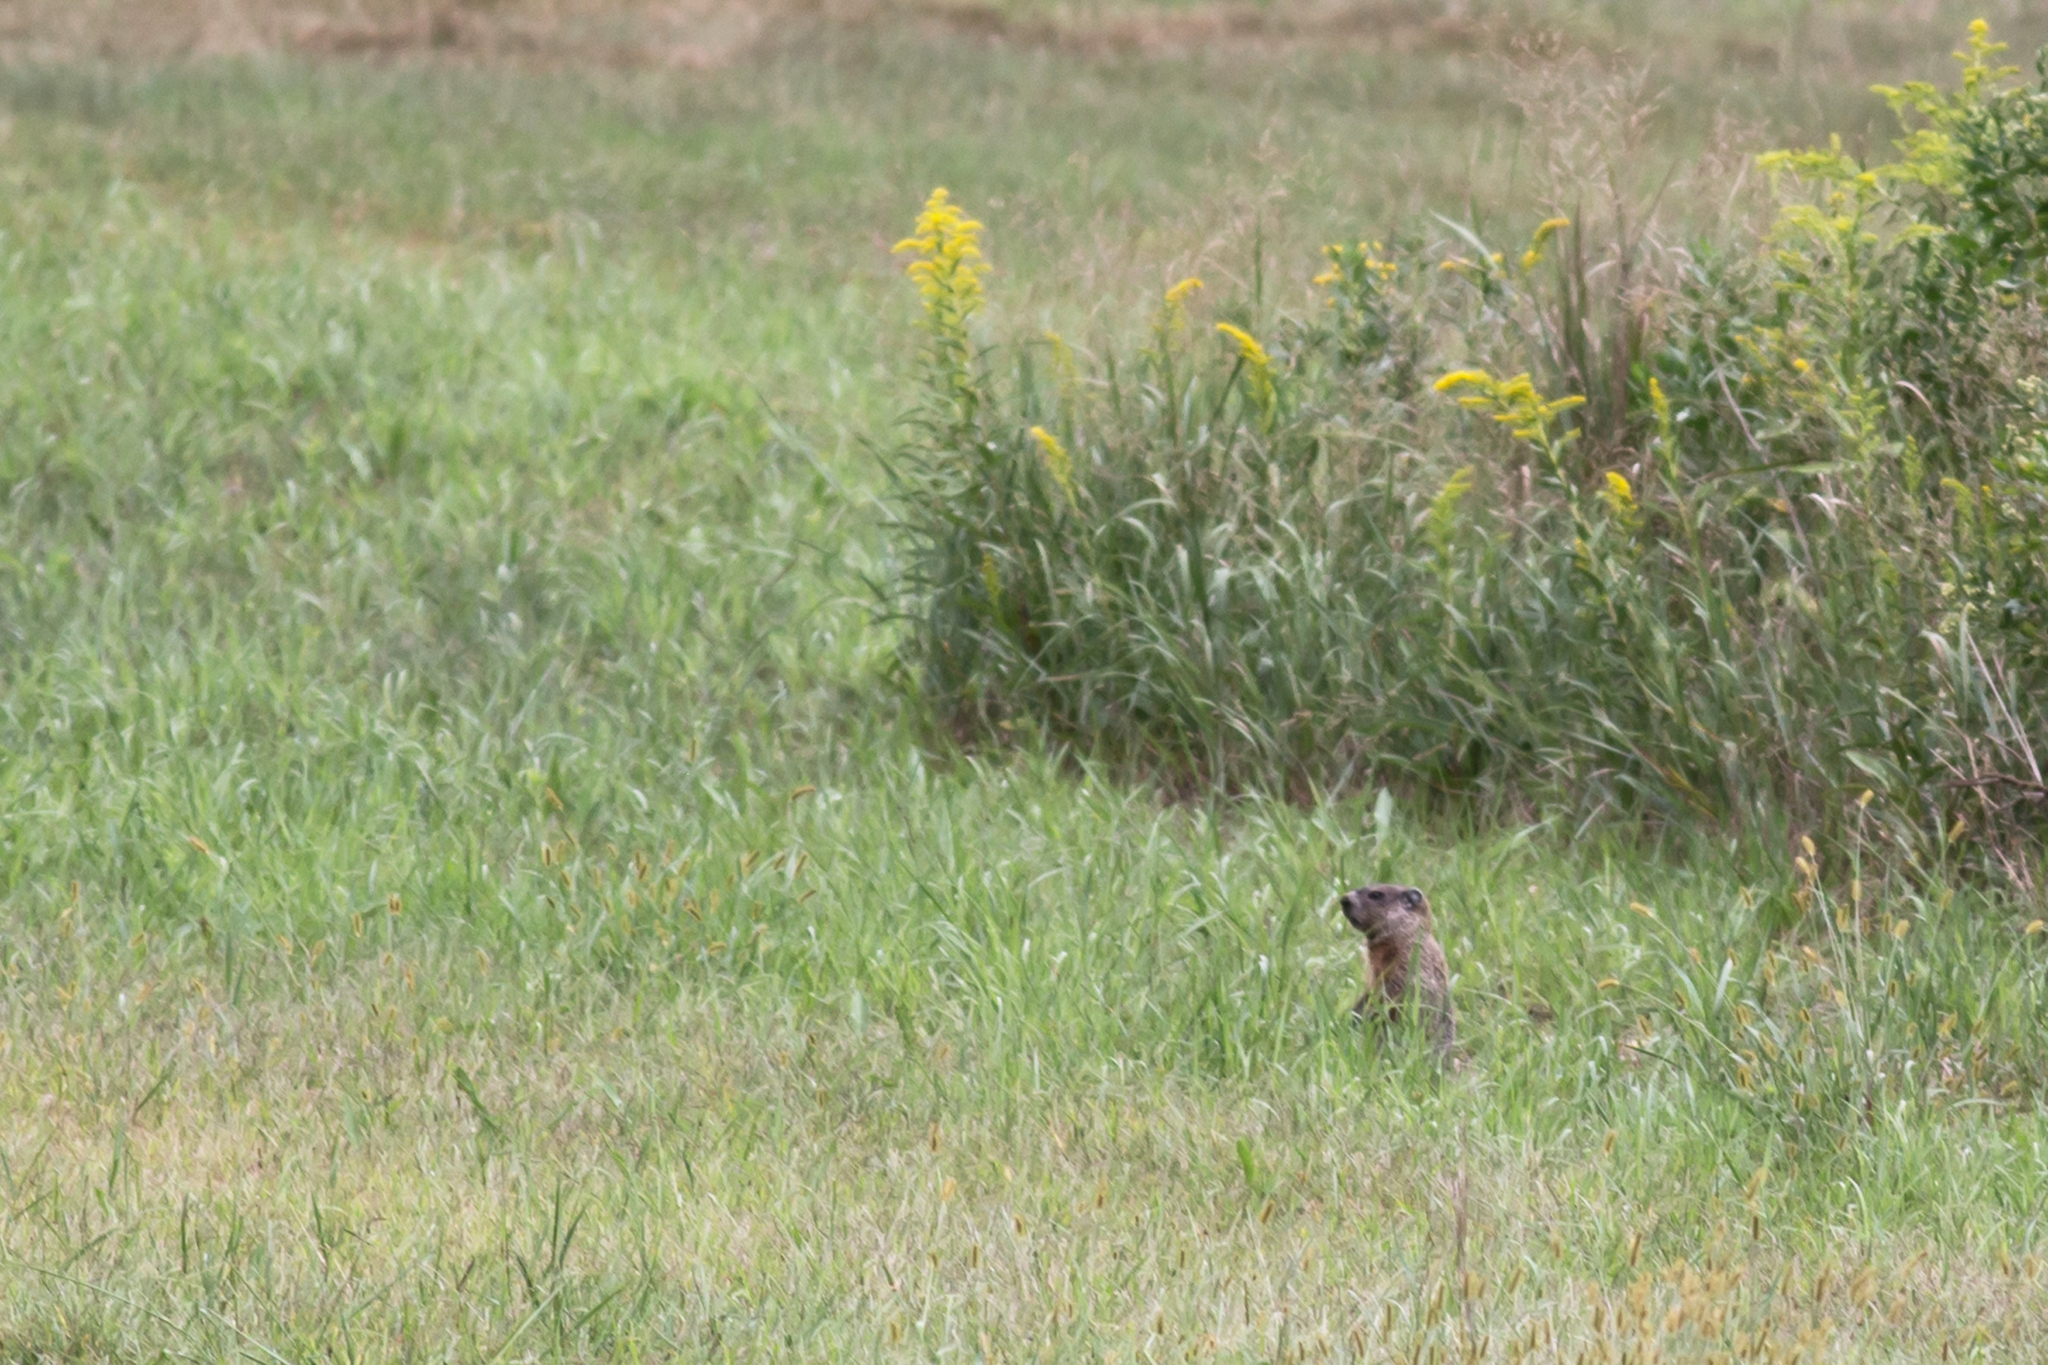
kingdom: Animalia
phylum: Chordata
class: Mammalia
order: Rodentia
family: Sciuridae
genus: Marmota
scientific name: Marmota monax
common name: Groundhog
